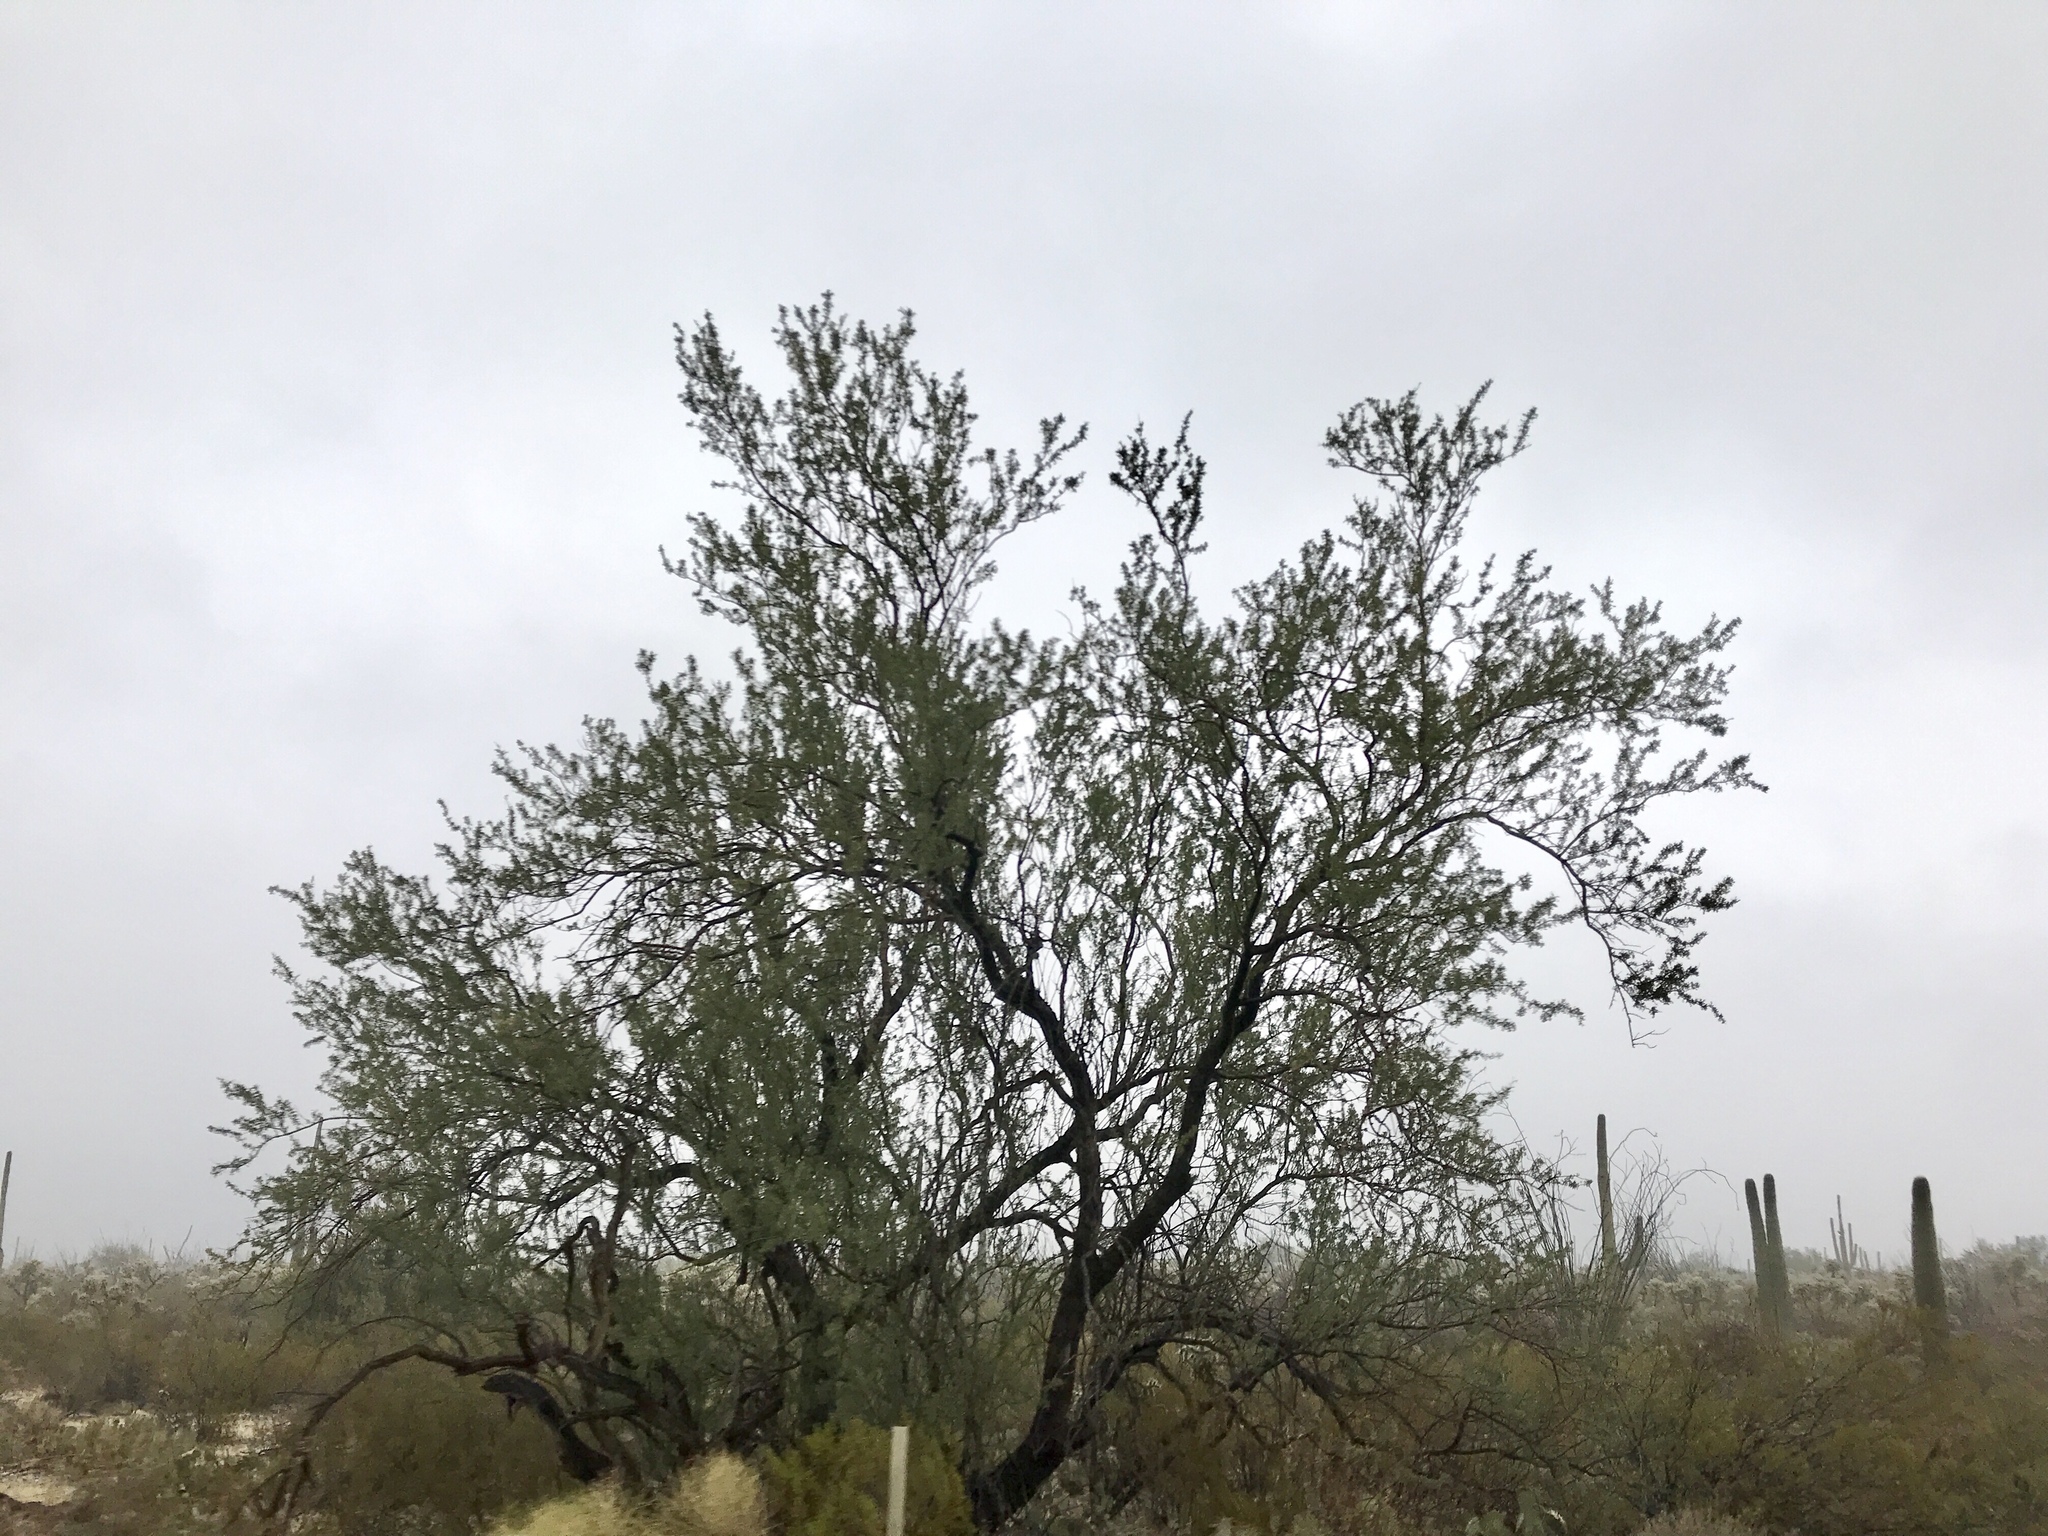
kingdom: Plantae
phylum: Tracheophyta
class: Magnoliopsida
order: Fabales
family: Fabaceae
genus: Olneya
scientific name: Olneya tesota
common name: Desert ironwood
